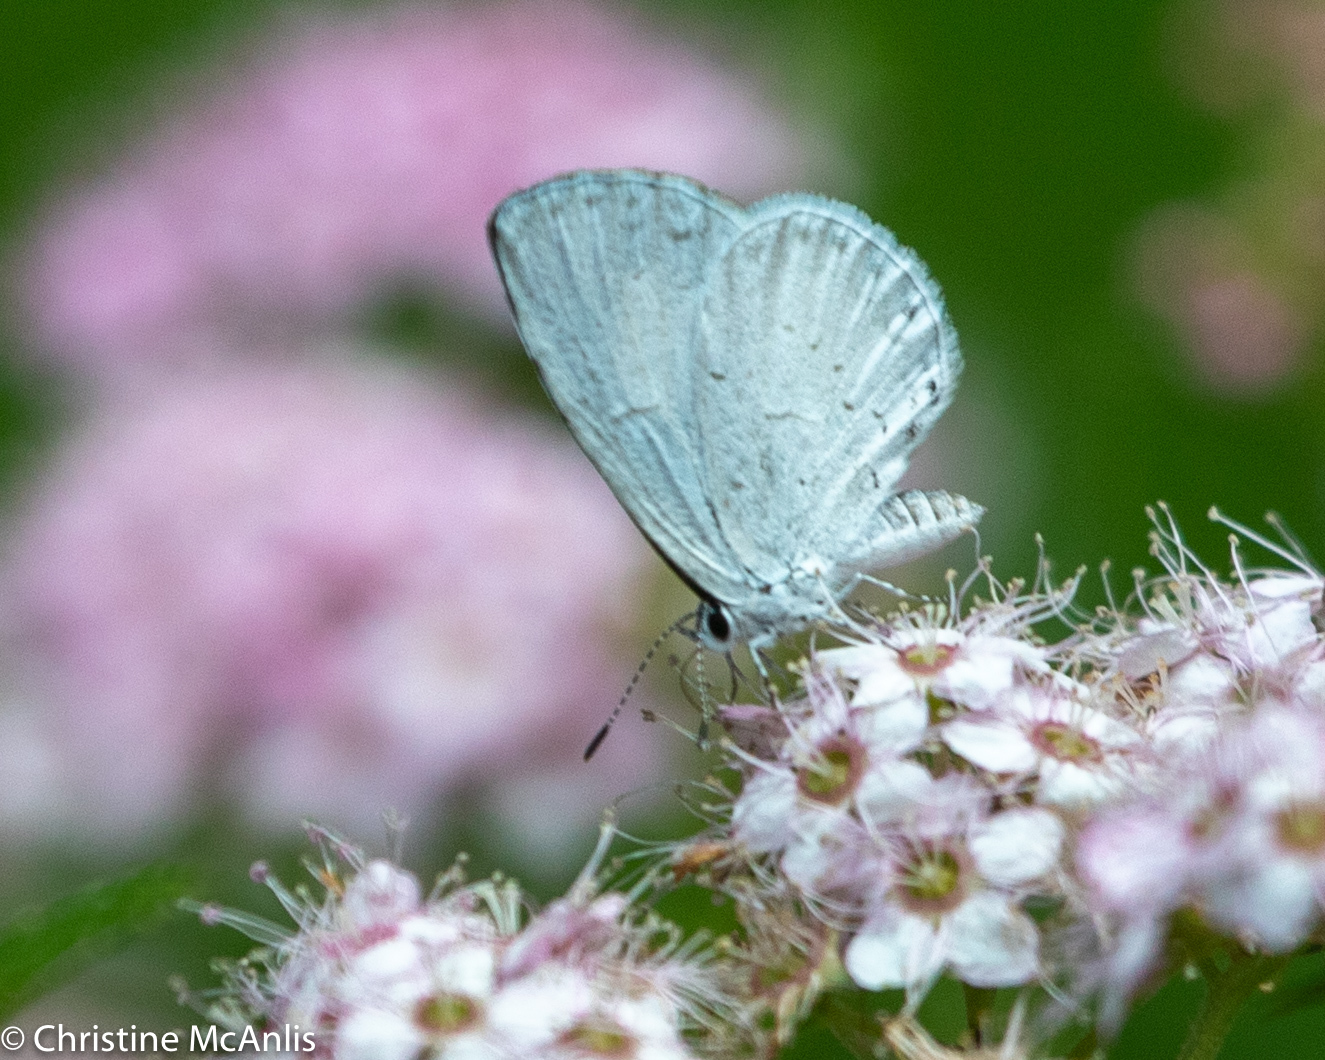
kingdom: Animalia
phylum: Arthropoda
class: Insecta
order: Lepidoptera
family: Lycaenidae
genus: Cyaniris
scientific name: Cyaniris neglecta
